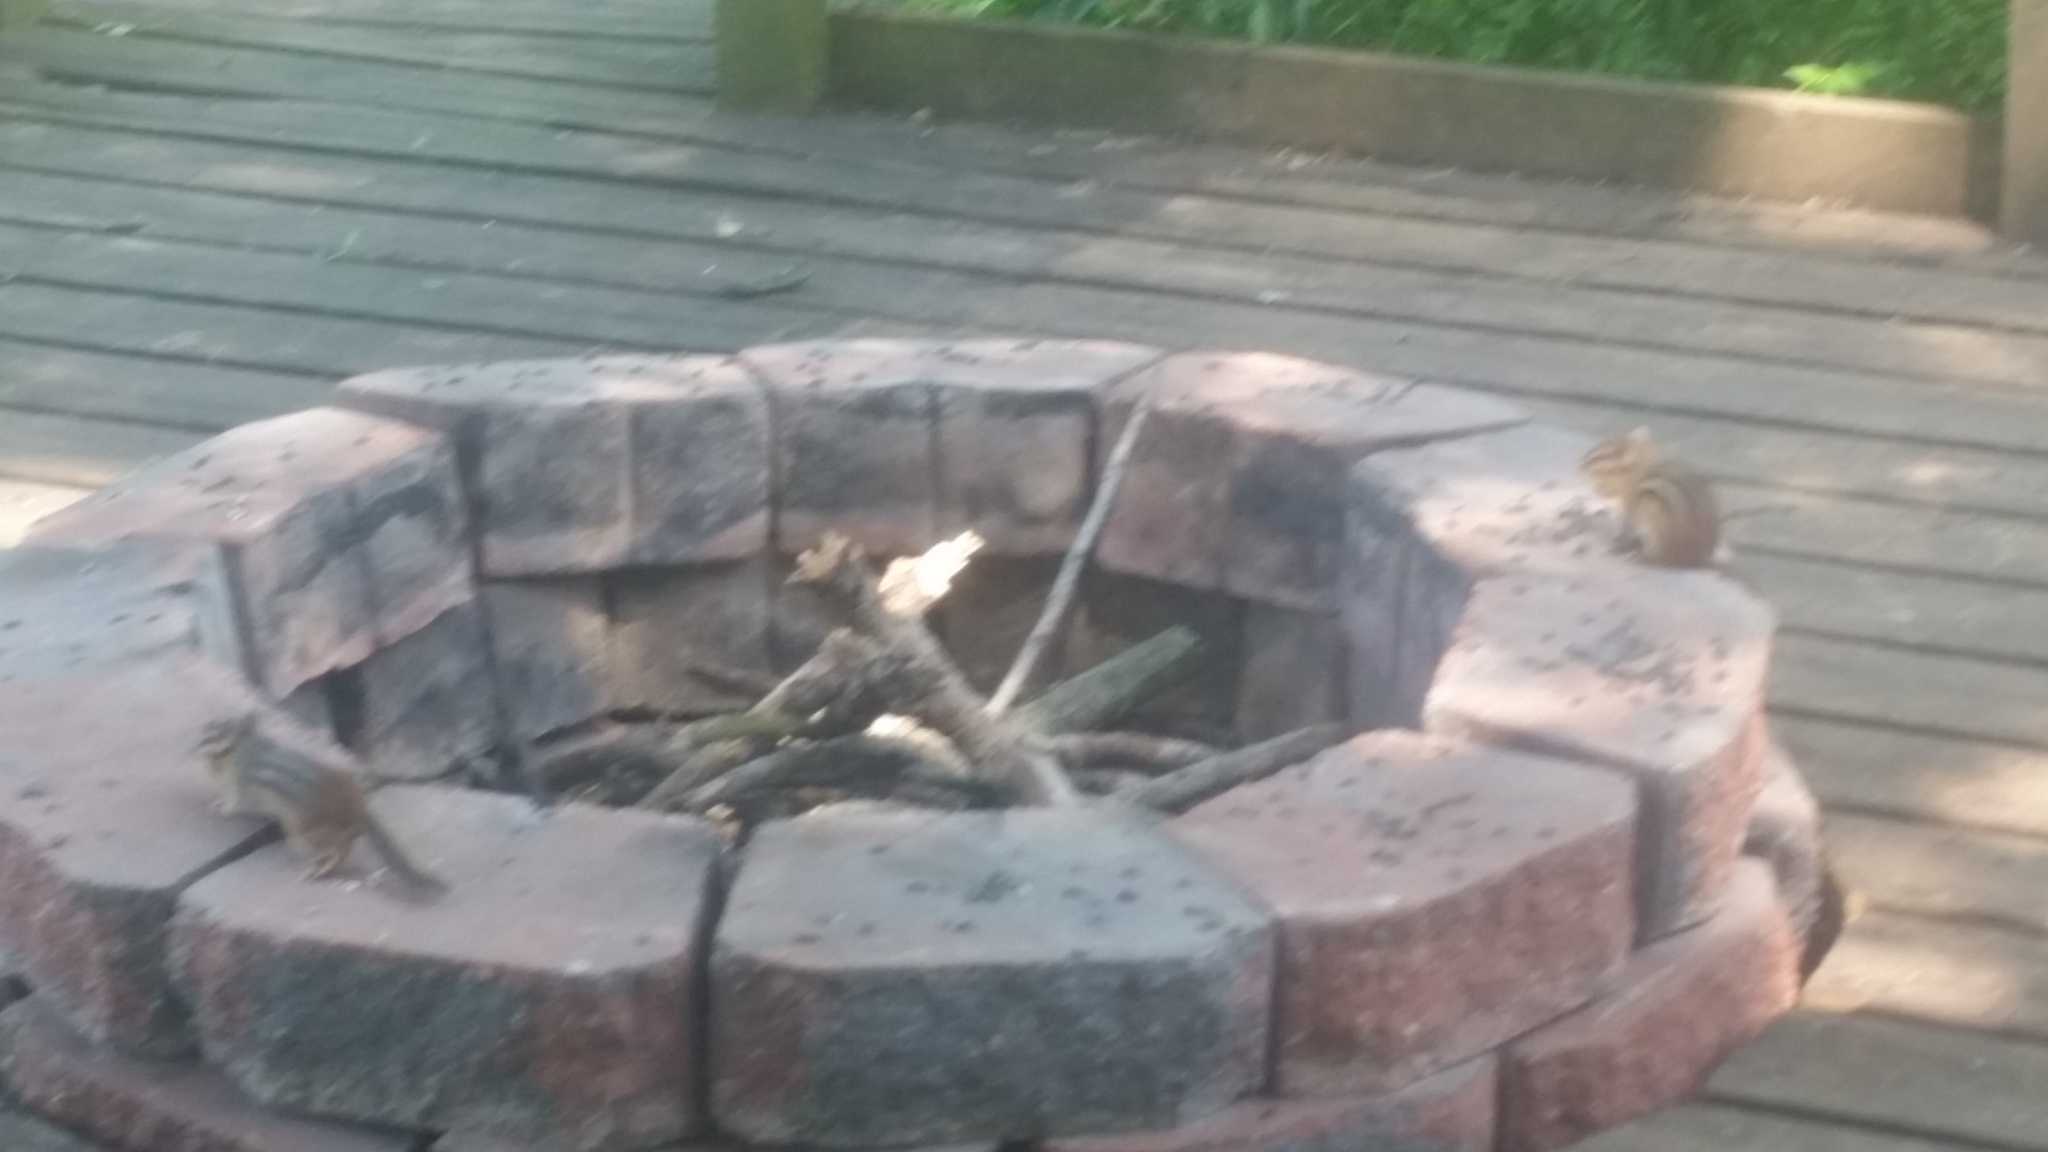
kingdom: Animalia
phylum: Chordata
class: Mammalia
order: Rodentia
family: Sciuridae
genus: Tamias
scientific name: Tamias striatus
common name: Eastern chipmunk
